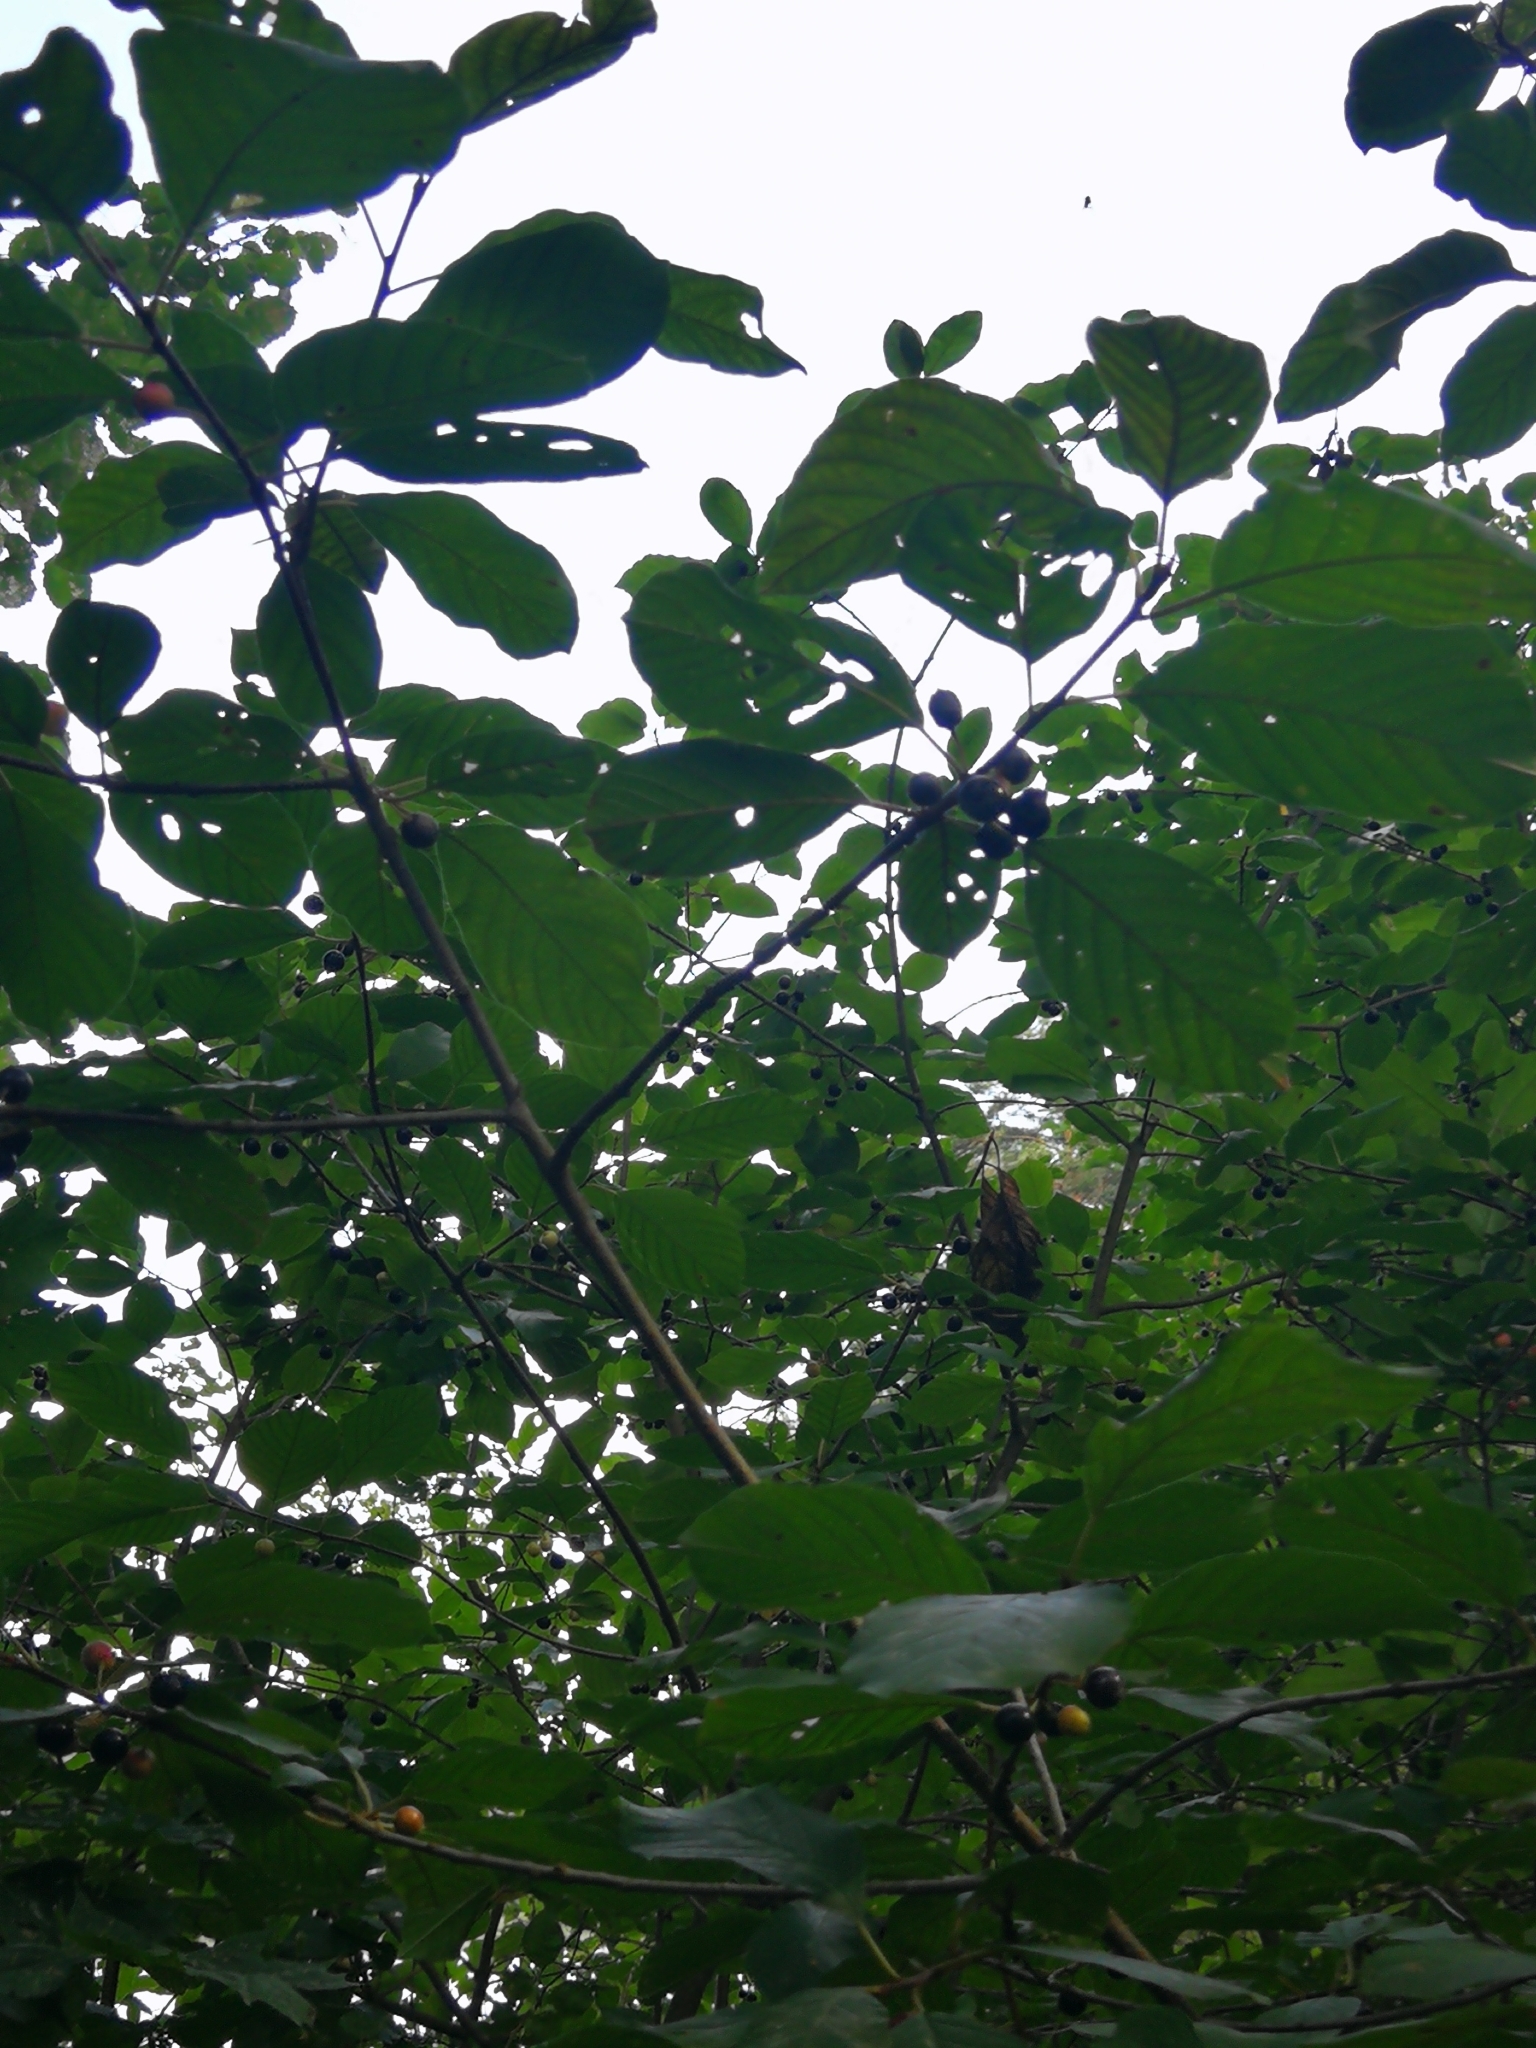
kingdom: Plantae
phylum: Tracheophyta
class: Magnoliopsida
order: Rosales
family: Rhamnaceae
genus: Frangula
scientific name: Frangula alnus
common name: Alder buckthorn
